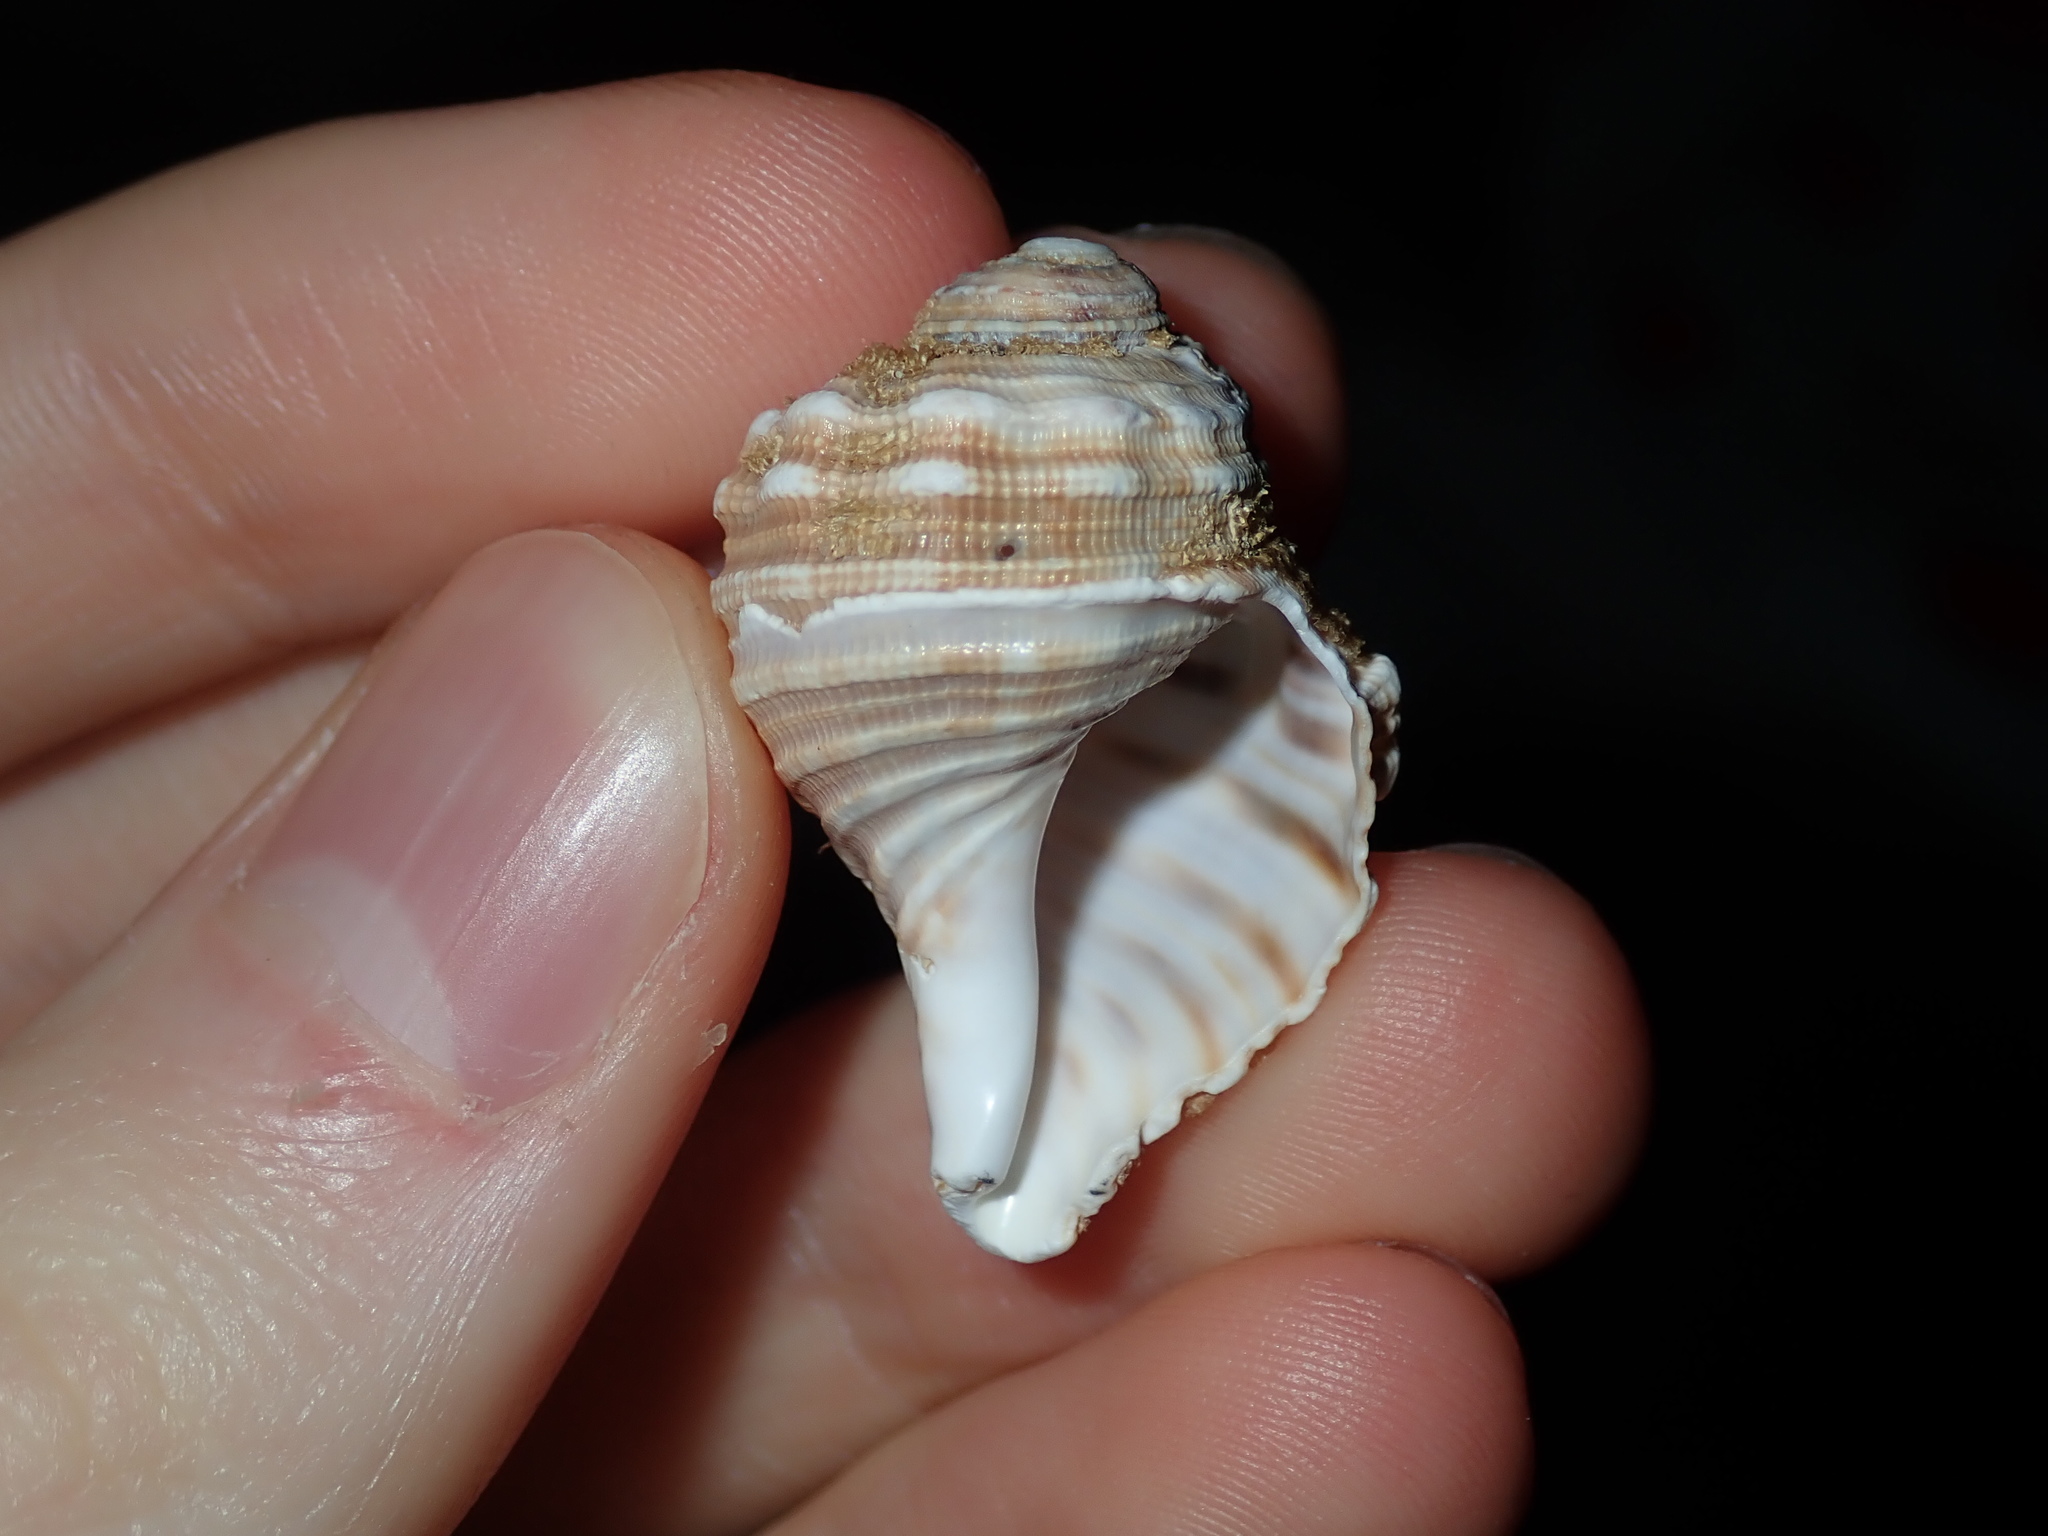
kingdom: Animalia
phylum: Mollusca
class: Gastropoda
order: Littorinimorpha
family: Cymatiidae
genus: Cabestana
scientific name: Cabestana spengleri
